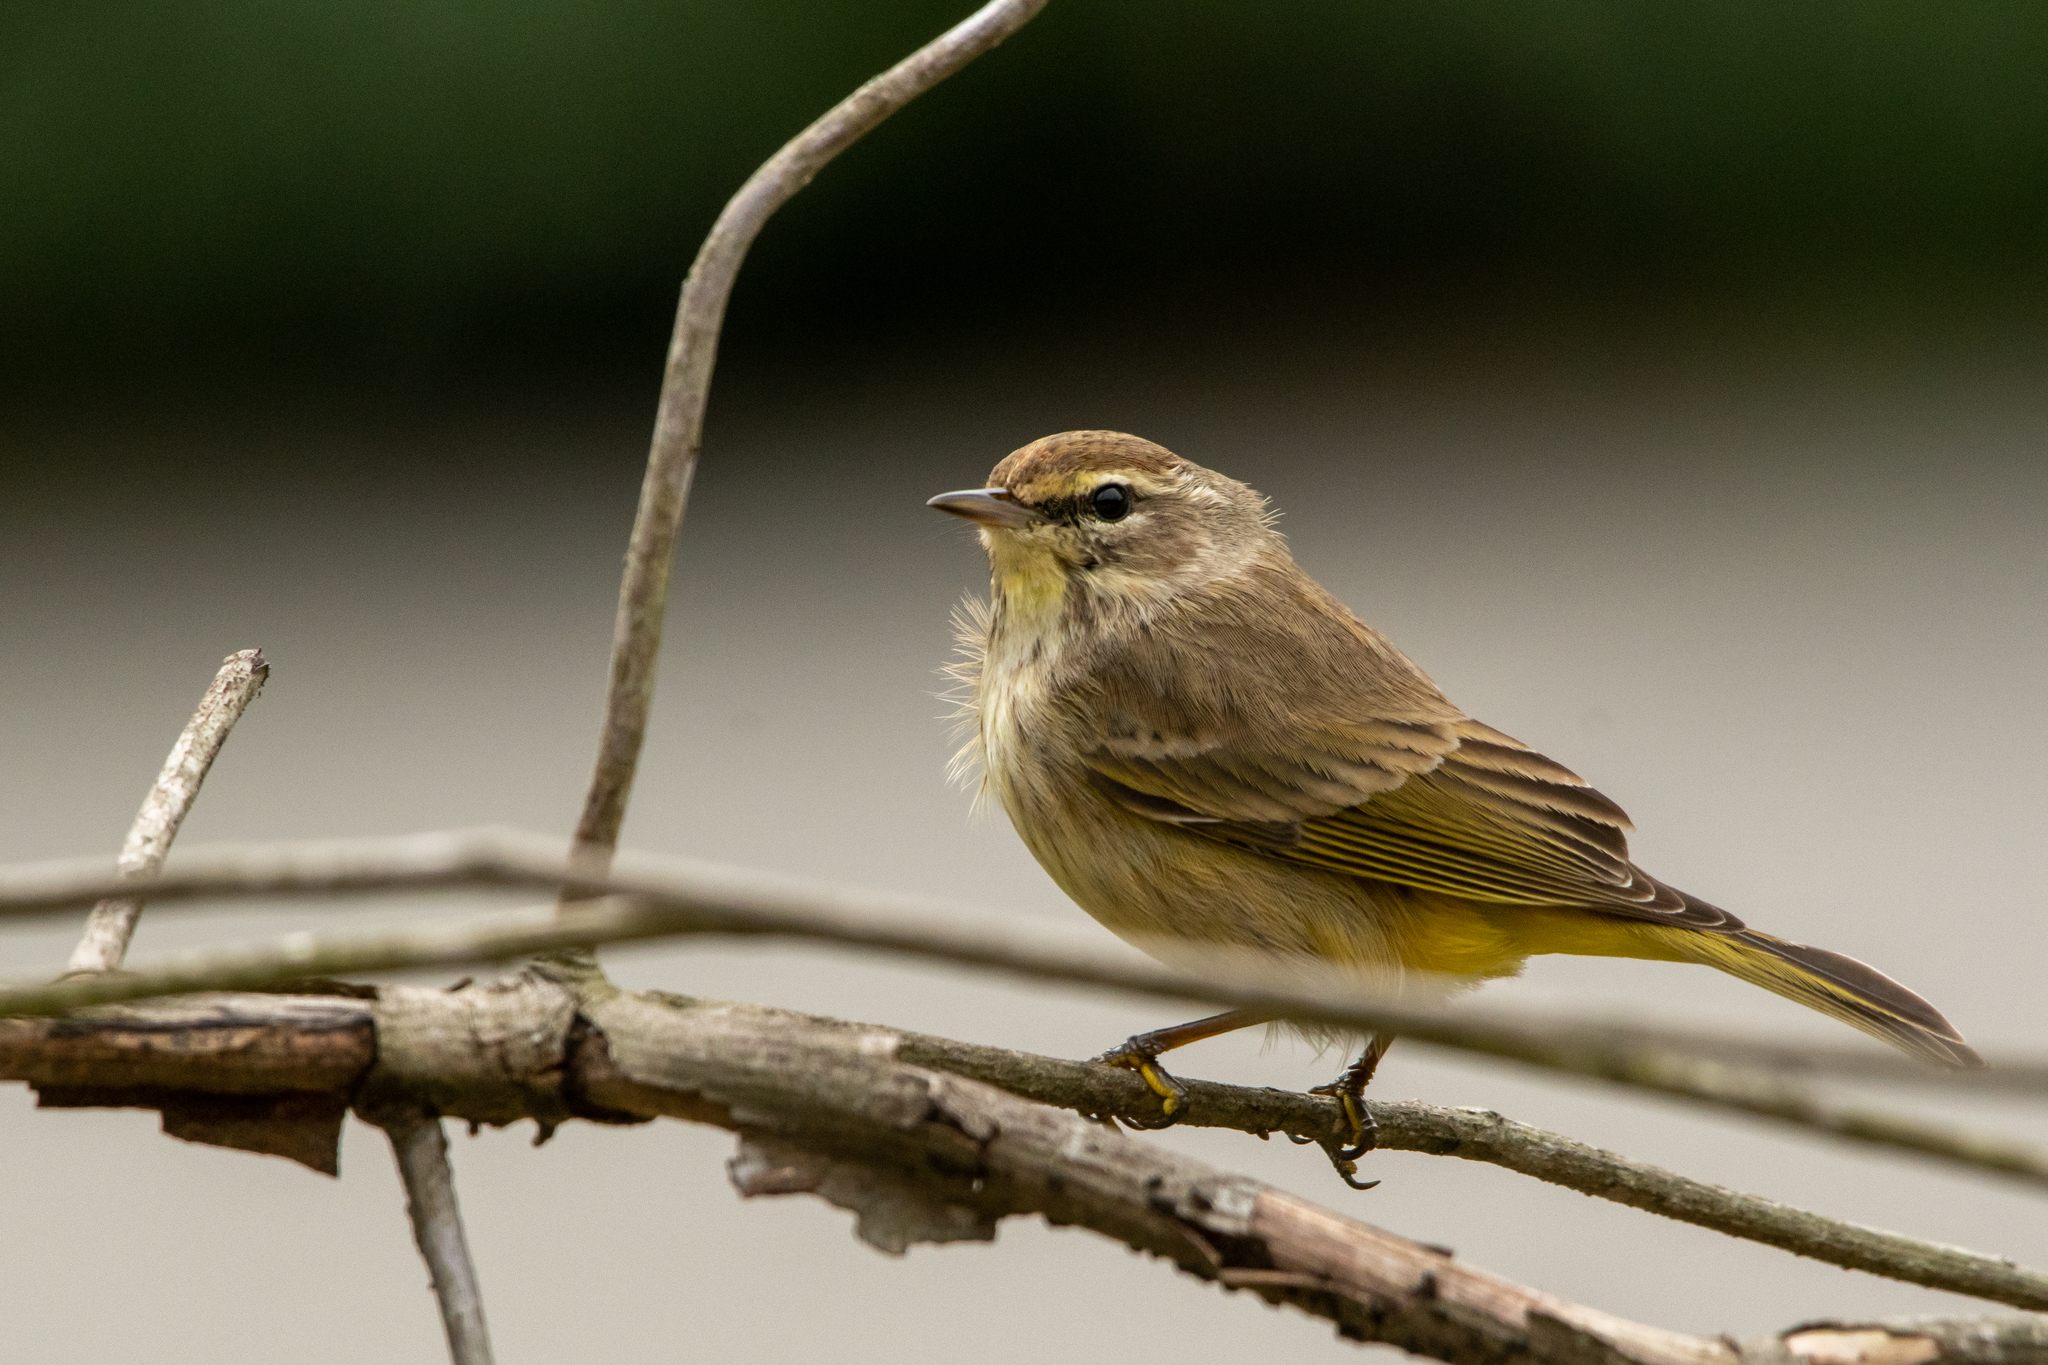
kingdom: Animalia
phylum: Chordata
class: Aves
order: Passeriformes
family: Parulidae
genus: Setophaga
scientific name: Setophaga palmarum
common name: Palm warbler
